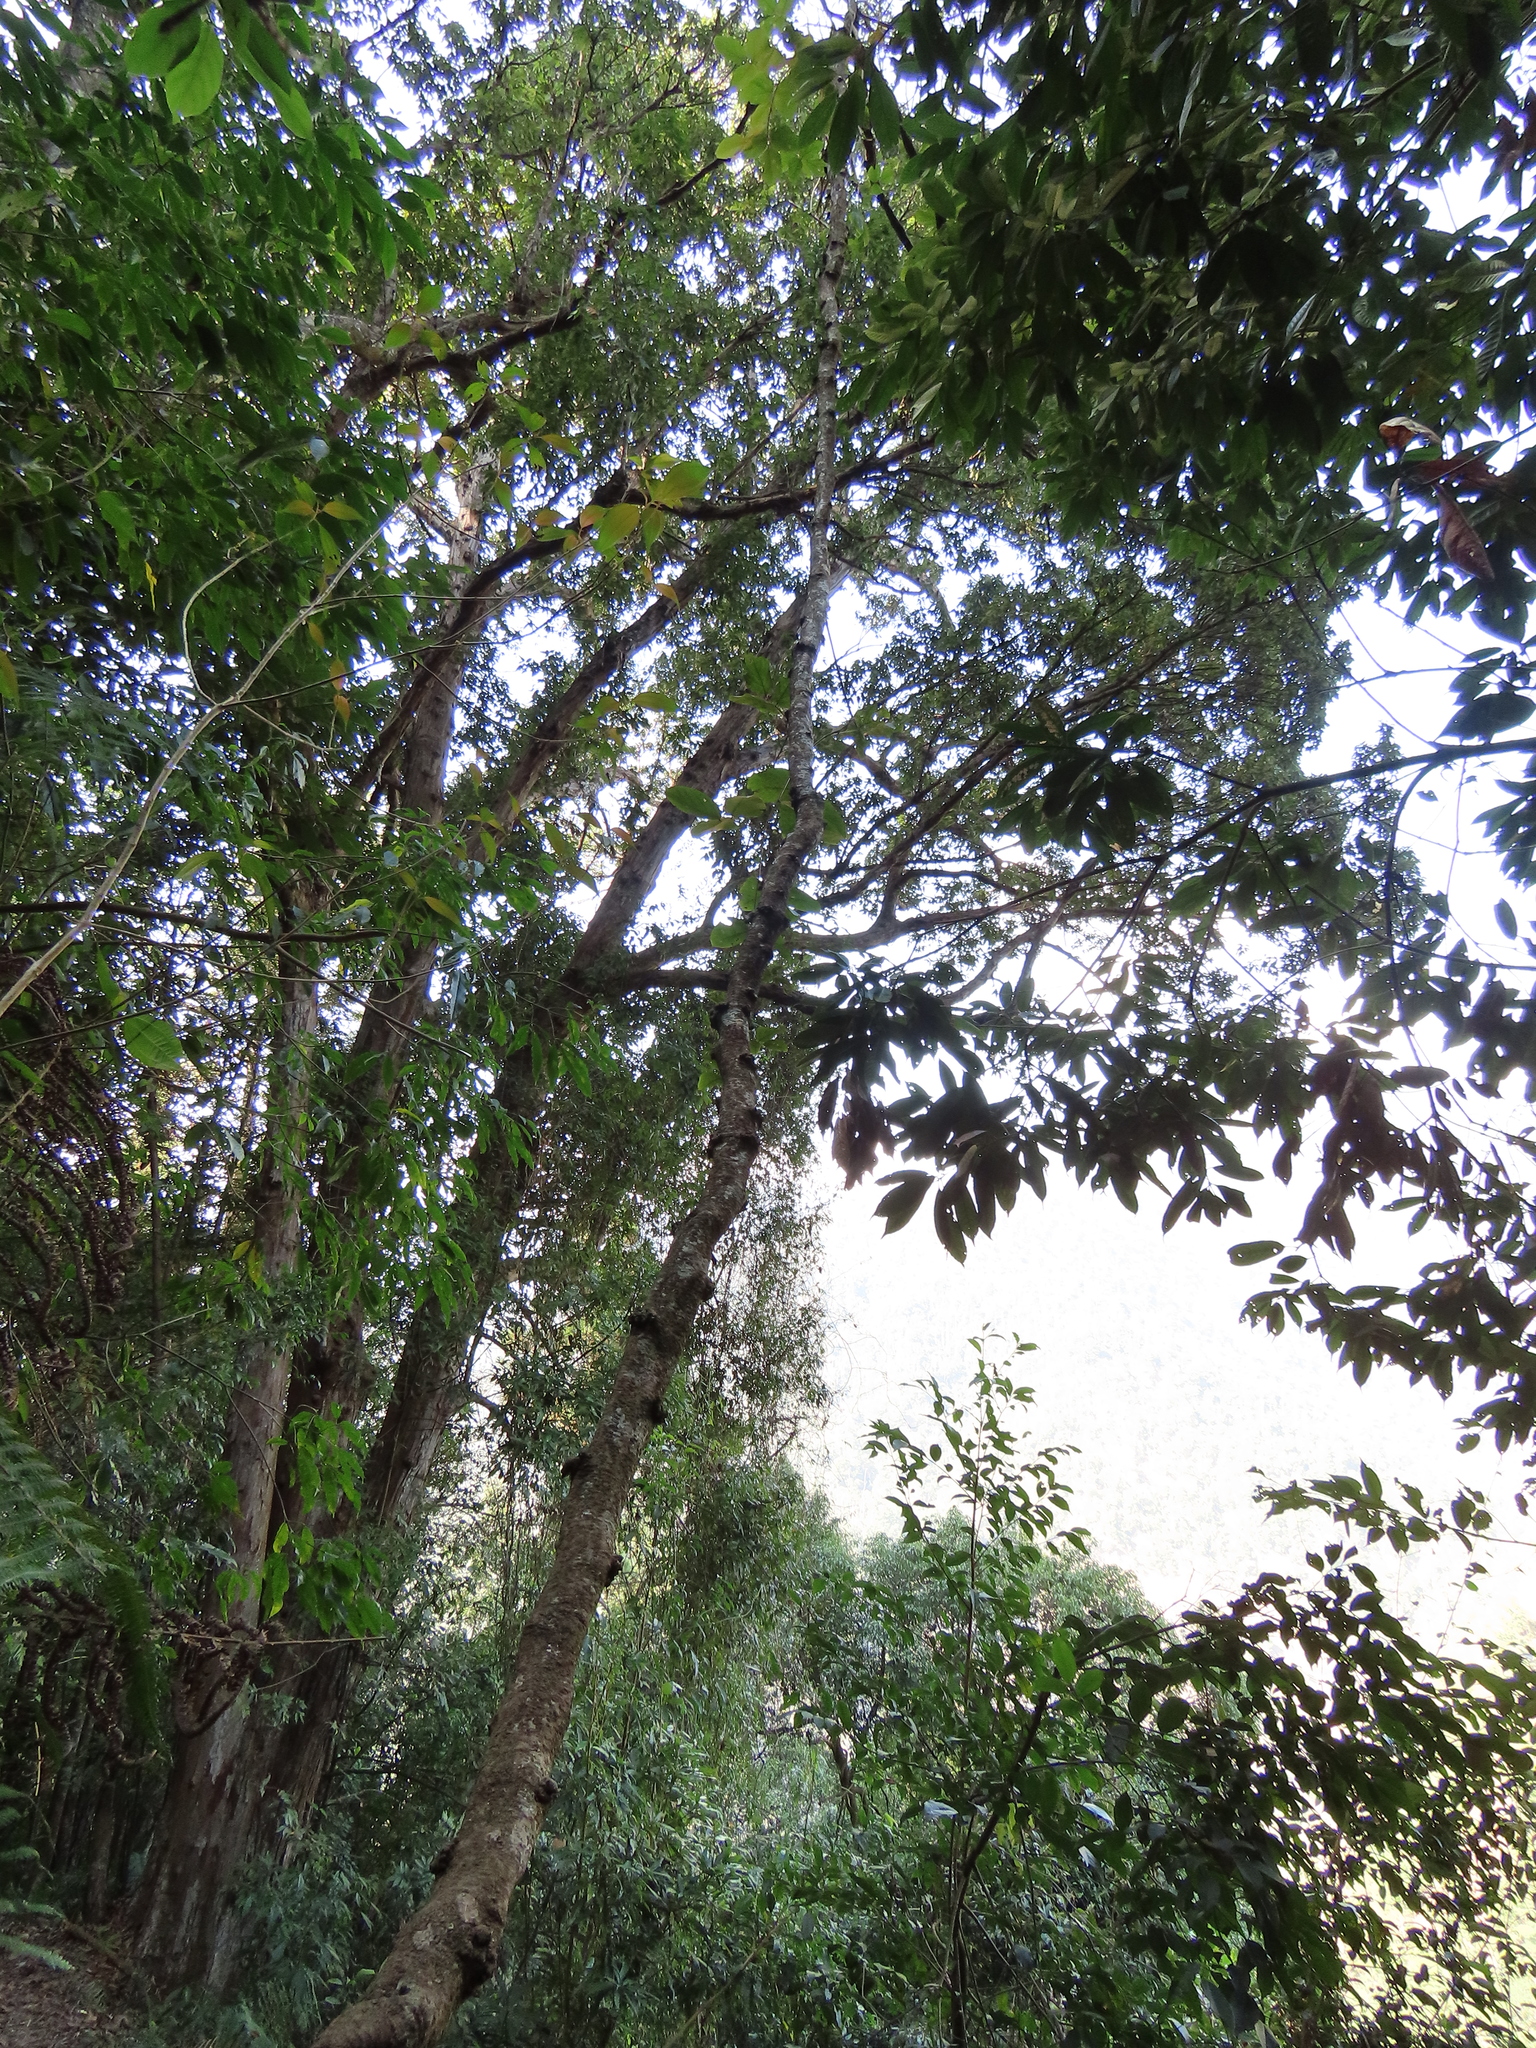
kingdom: Plantae
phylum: Tracheophyta
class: Magnoliopsida
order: Fabales
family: Fabaceae
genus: Mucuna
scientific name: Mucuna macrocarpa
